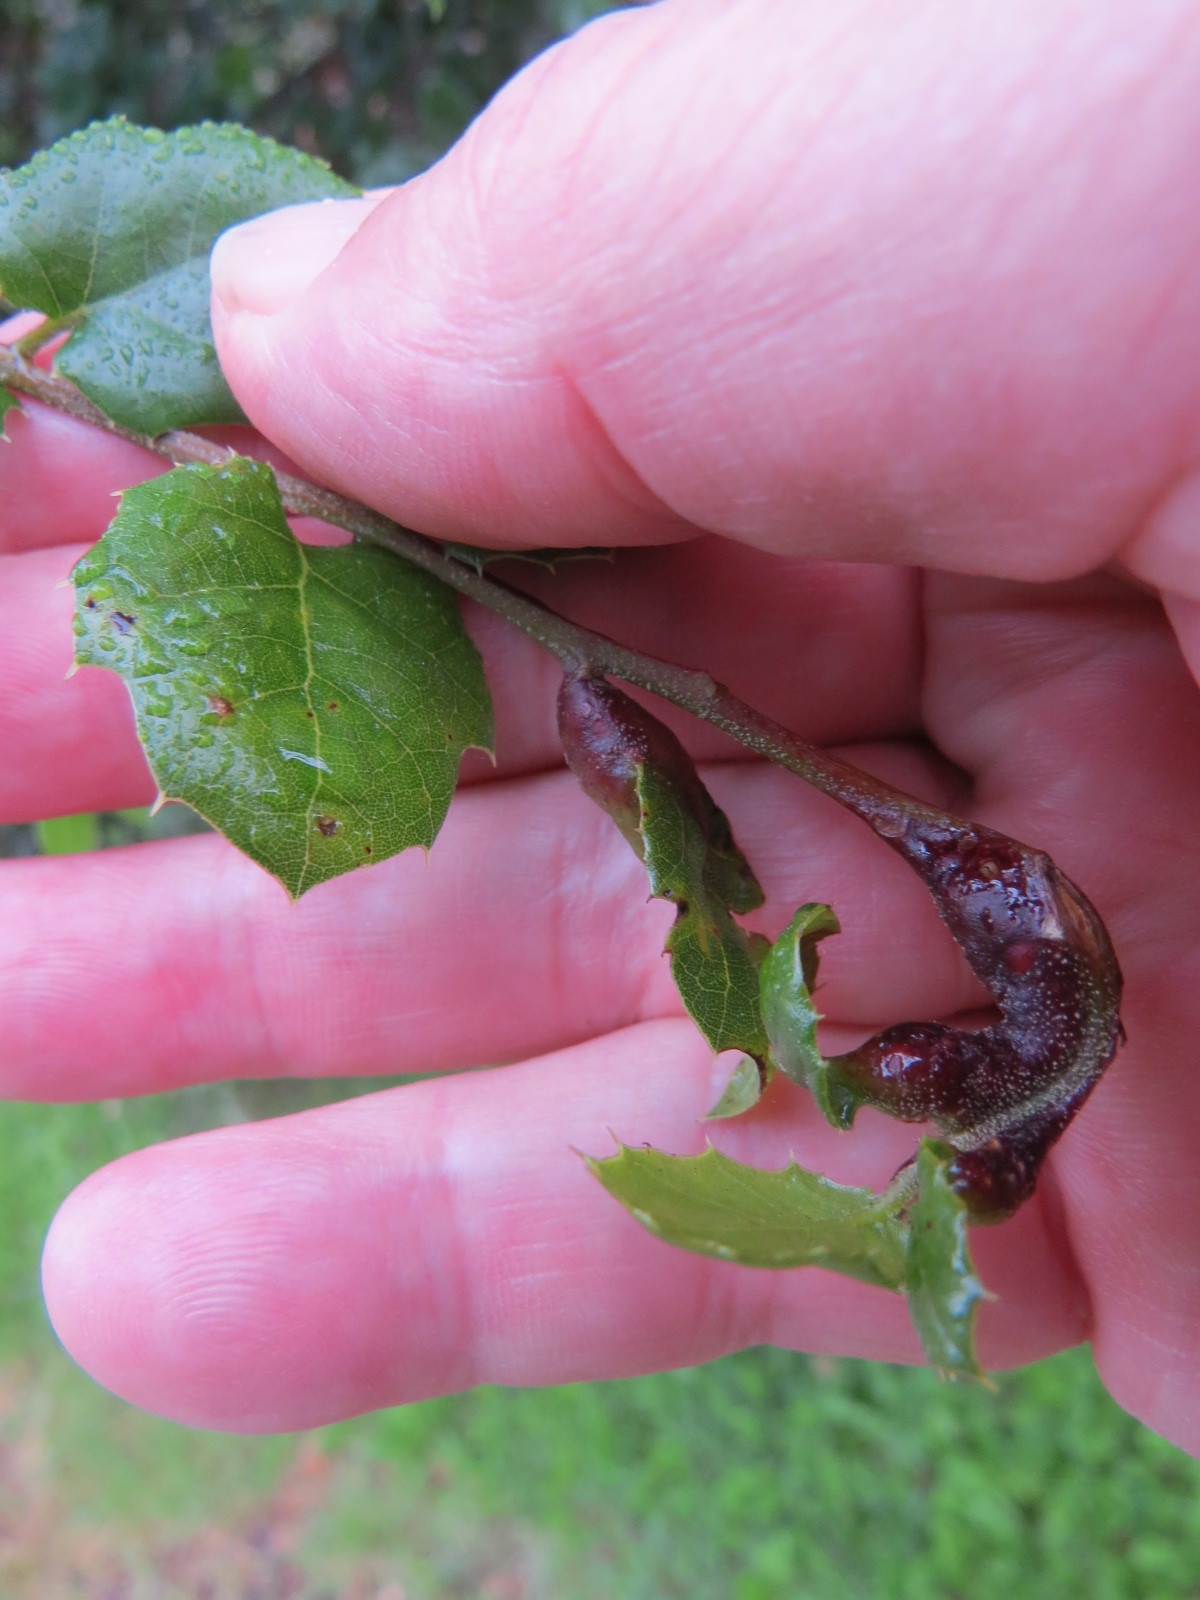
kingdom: Animalia
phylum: Arthropoda
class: Insecta
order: Hymenoptera
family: Cynipidae
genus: Melikaiella
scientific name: Melikaiella
